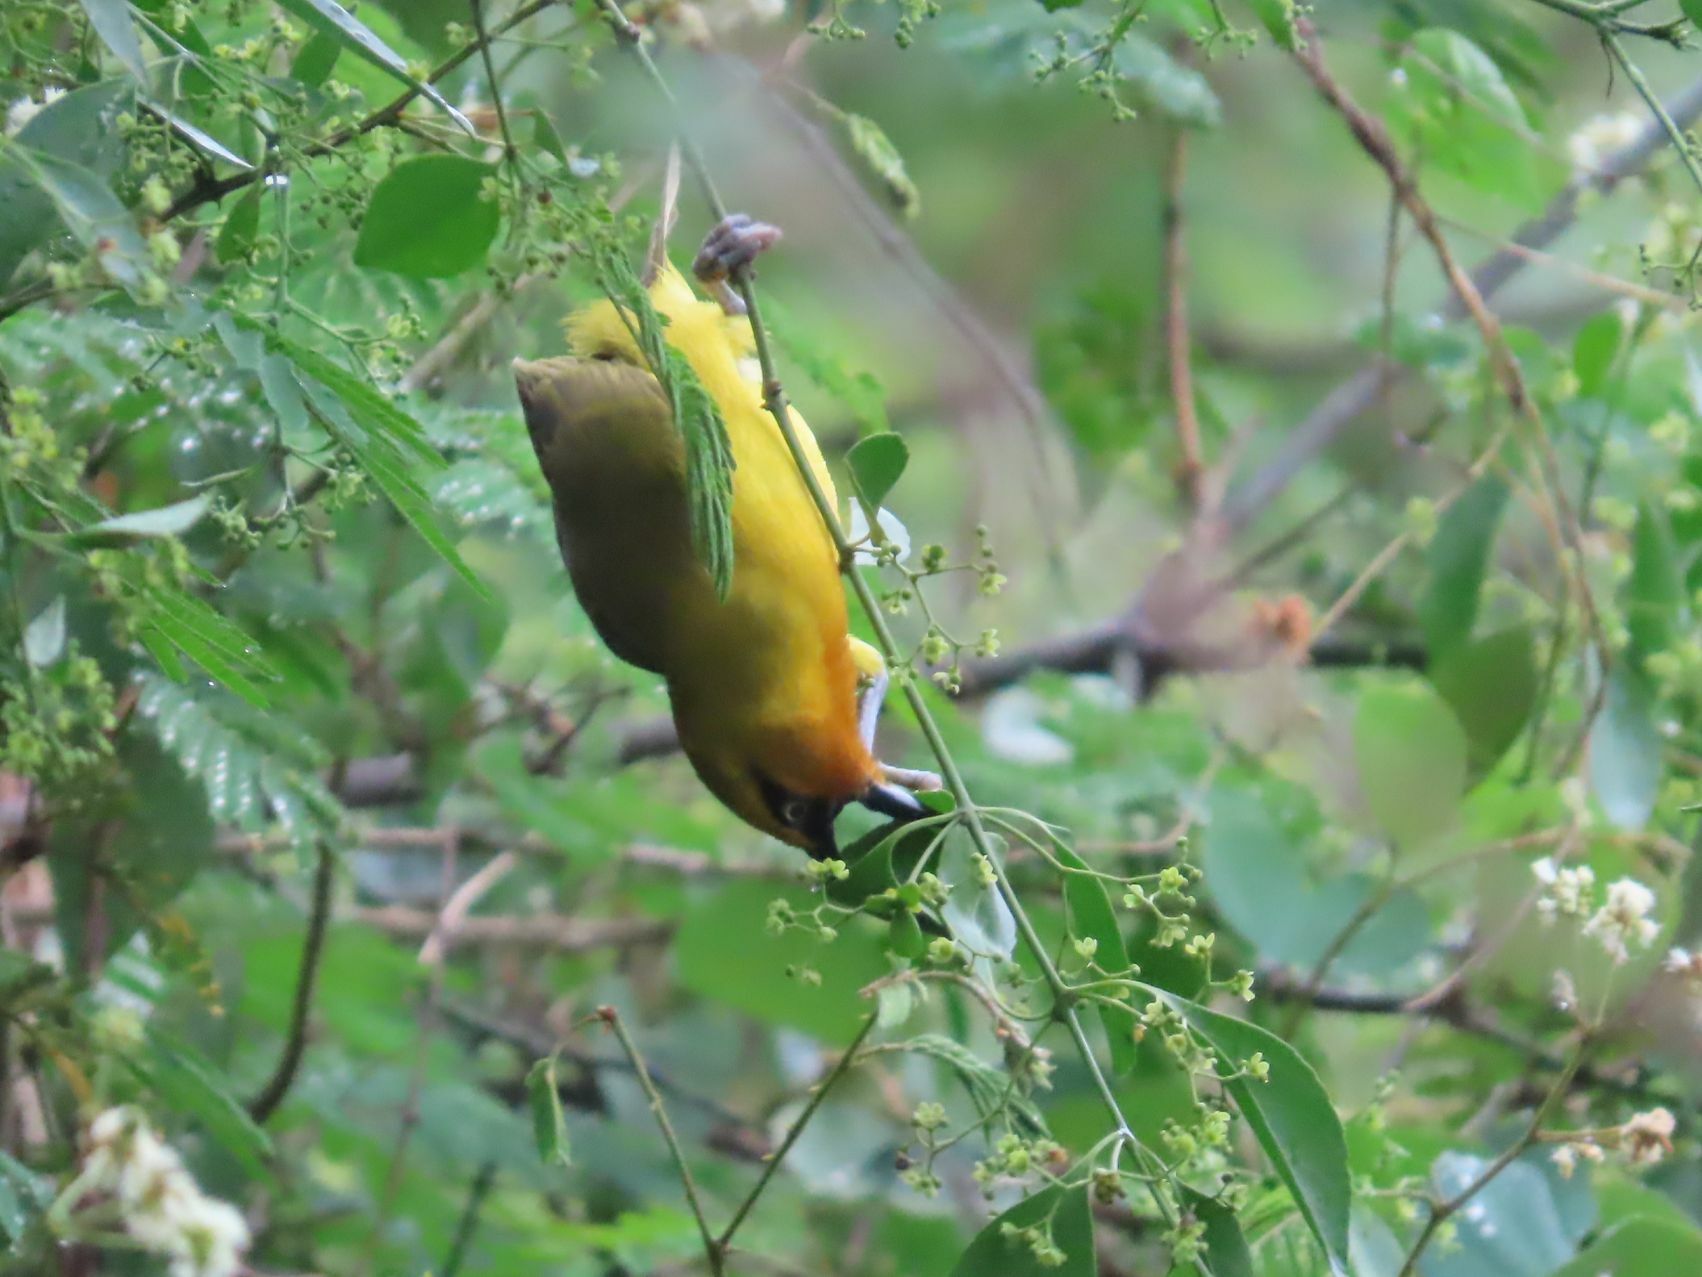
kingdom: Animalia
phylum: Chordata
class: Aves
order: Passeriformes
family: Ploceidae
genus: Ploceus
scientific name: Ploceus ocularis
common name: Spectacled weaver
